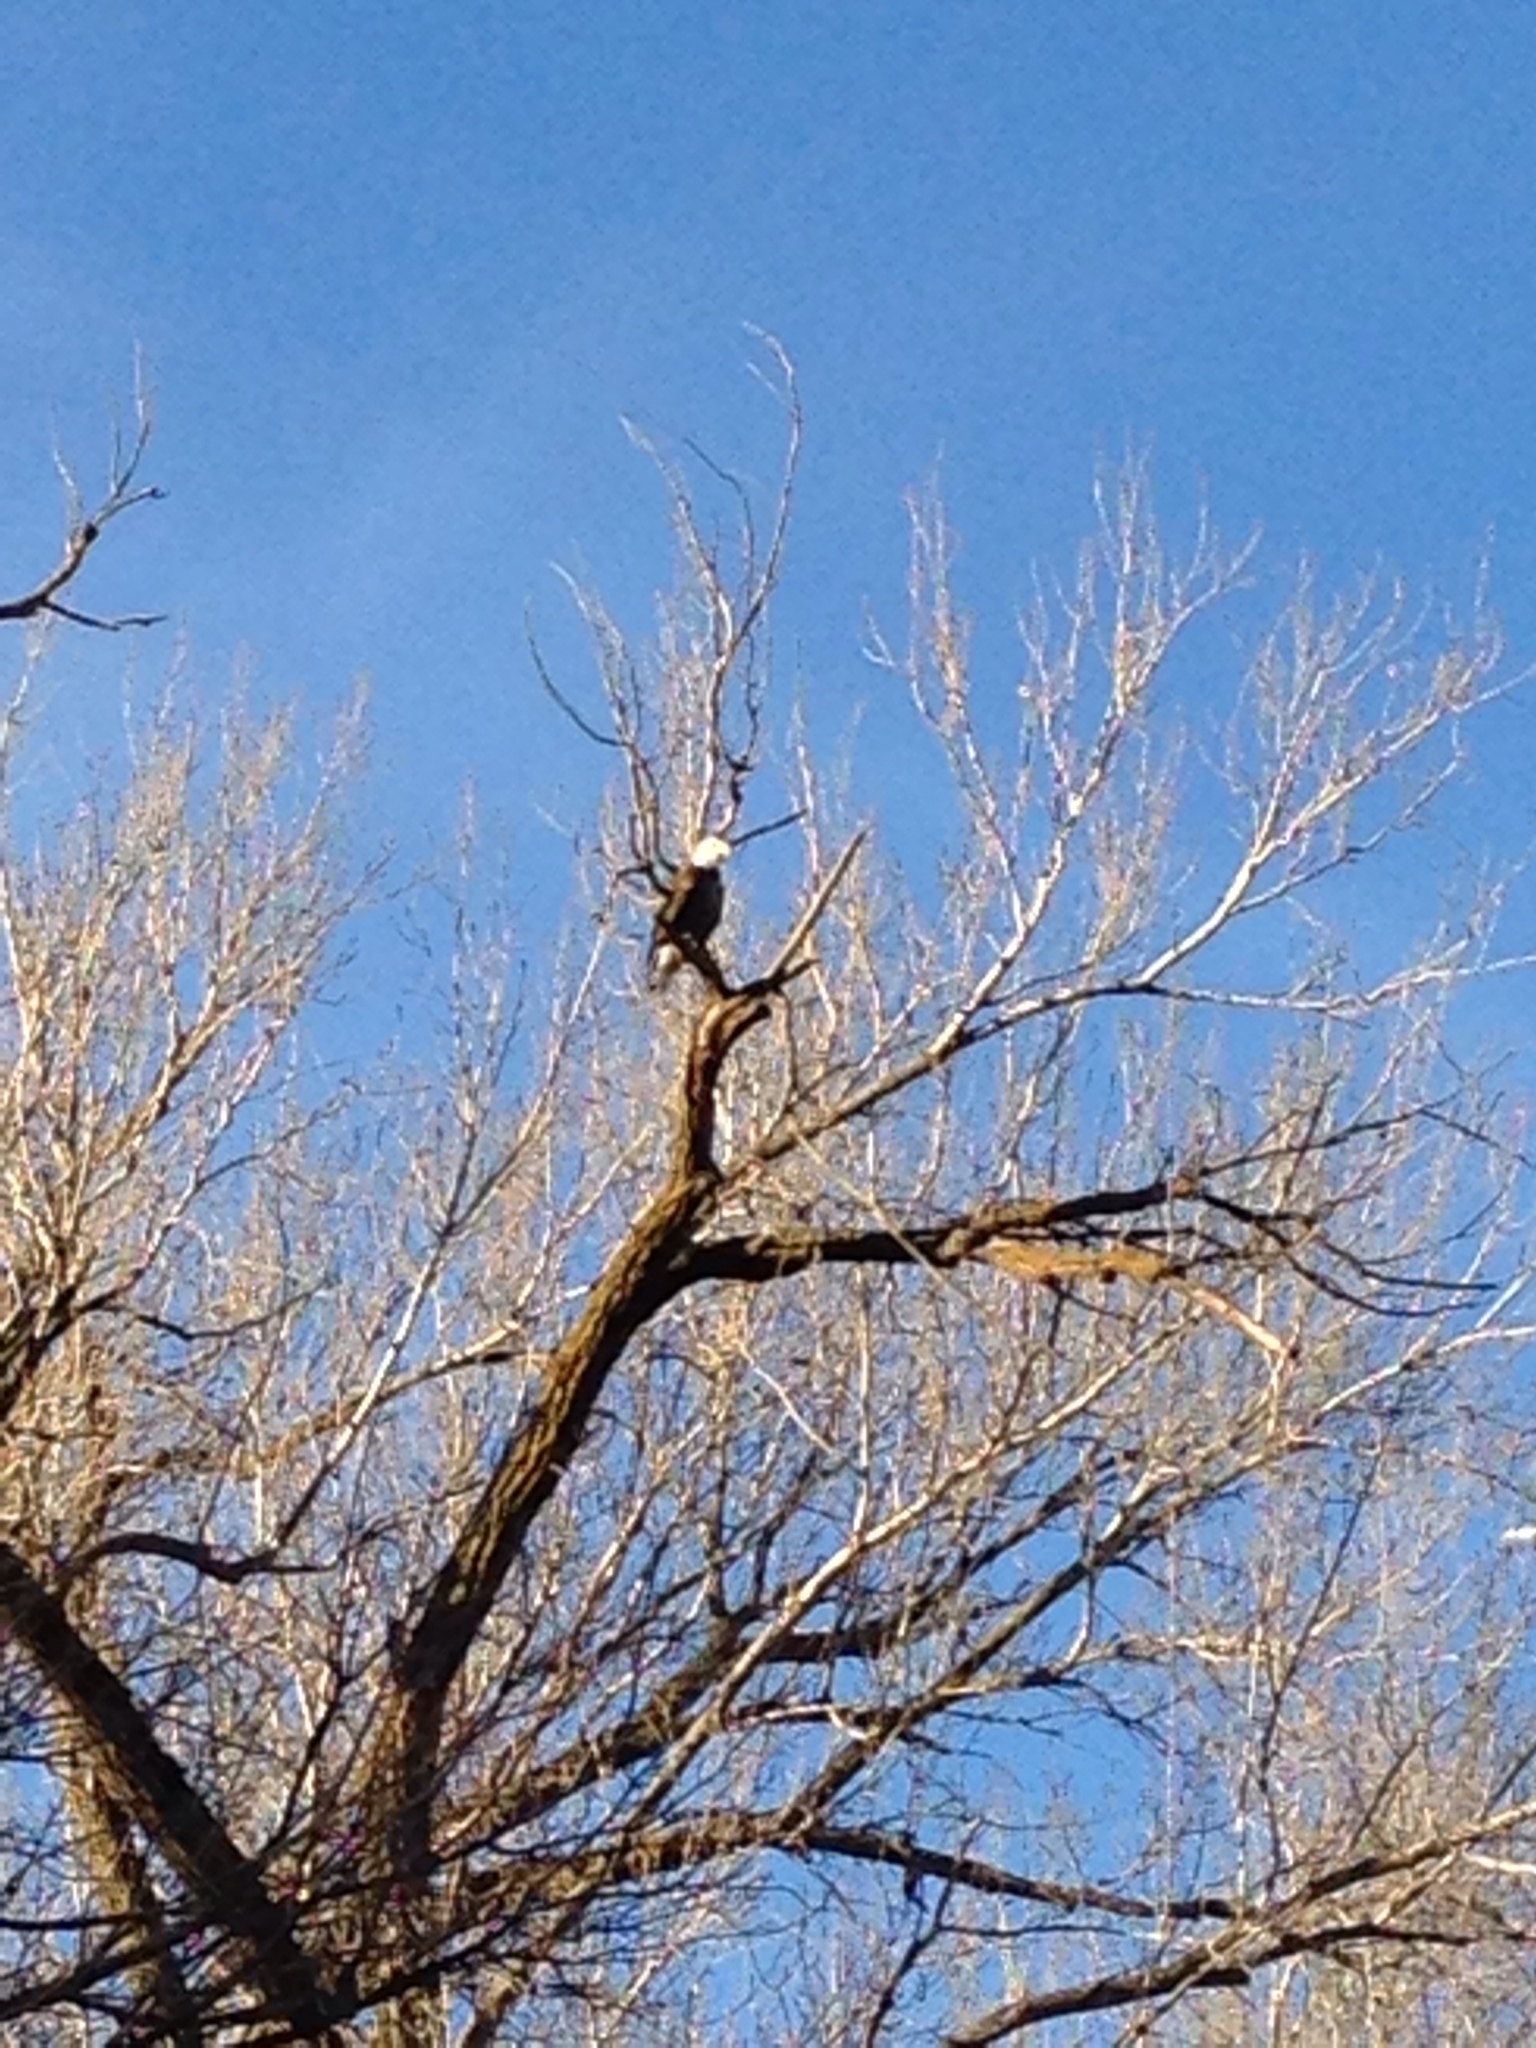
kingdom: Animalia
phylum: Chordata
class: Aves
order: Accipitriformes
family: Accipitridae
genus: Haliaeetus
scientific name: Haliaeetus leucocephalus
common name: Bald eagle
